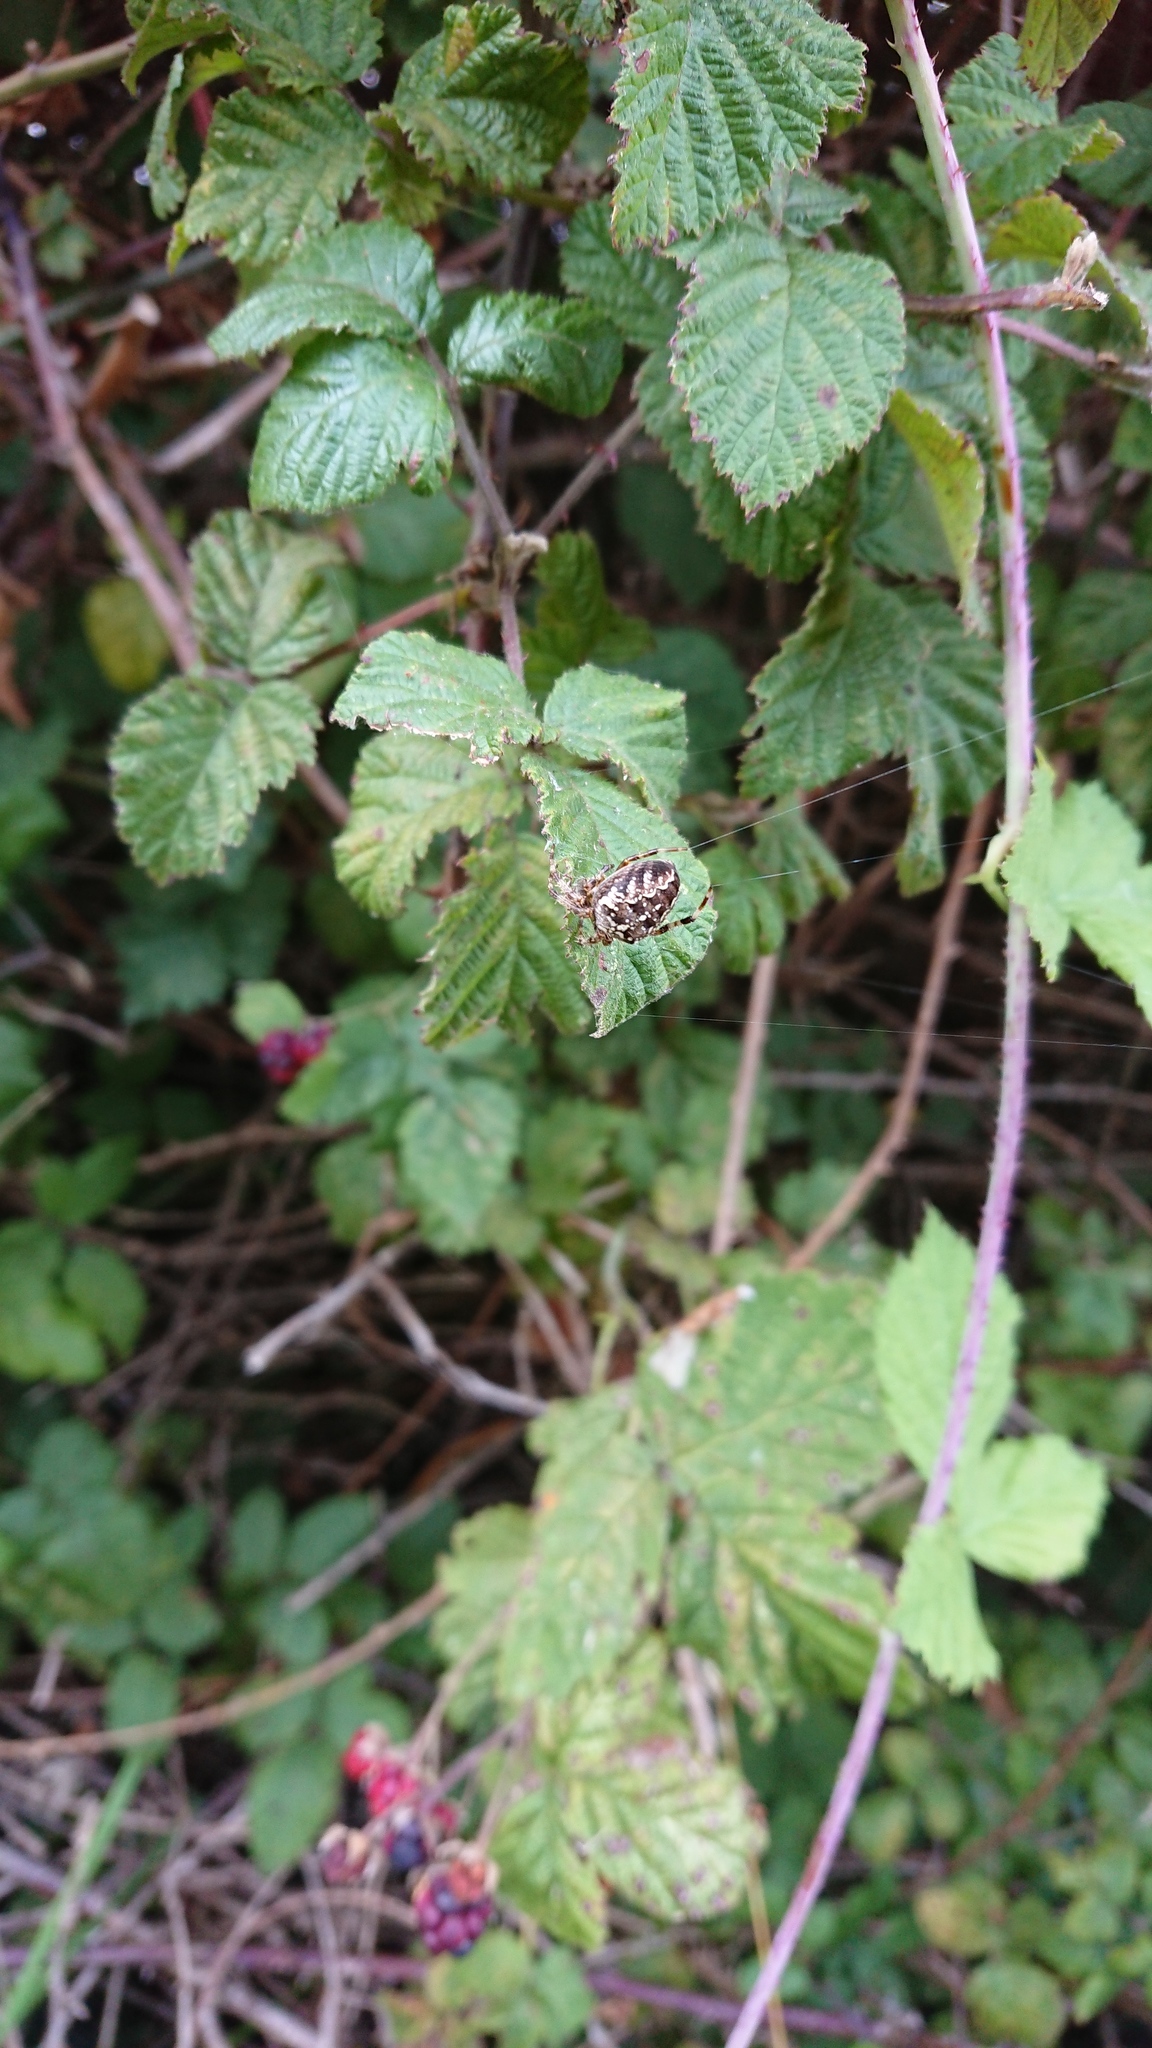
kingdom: Animalia
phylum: Arthropoda
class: Arachnida
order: Araneae
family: Araneidae
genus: Araneus
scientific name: Araneus diadematus
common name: Cross orbweaver
